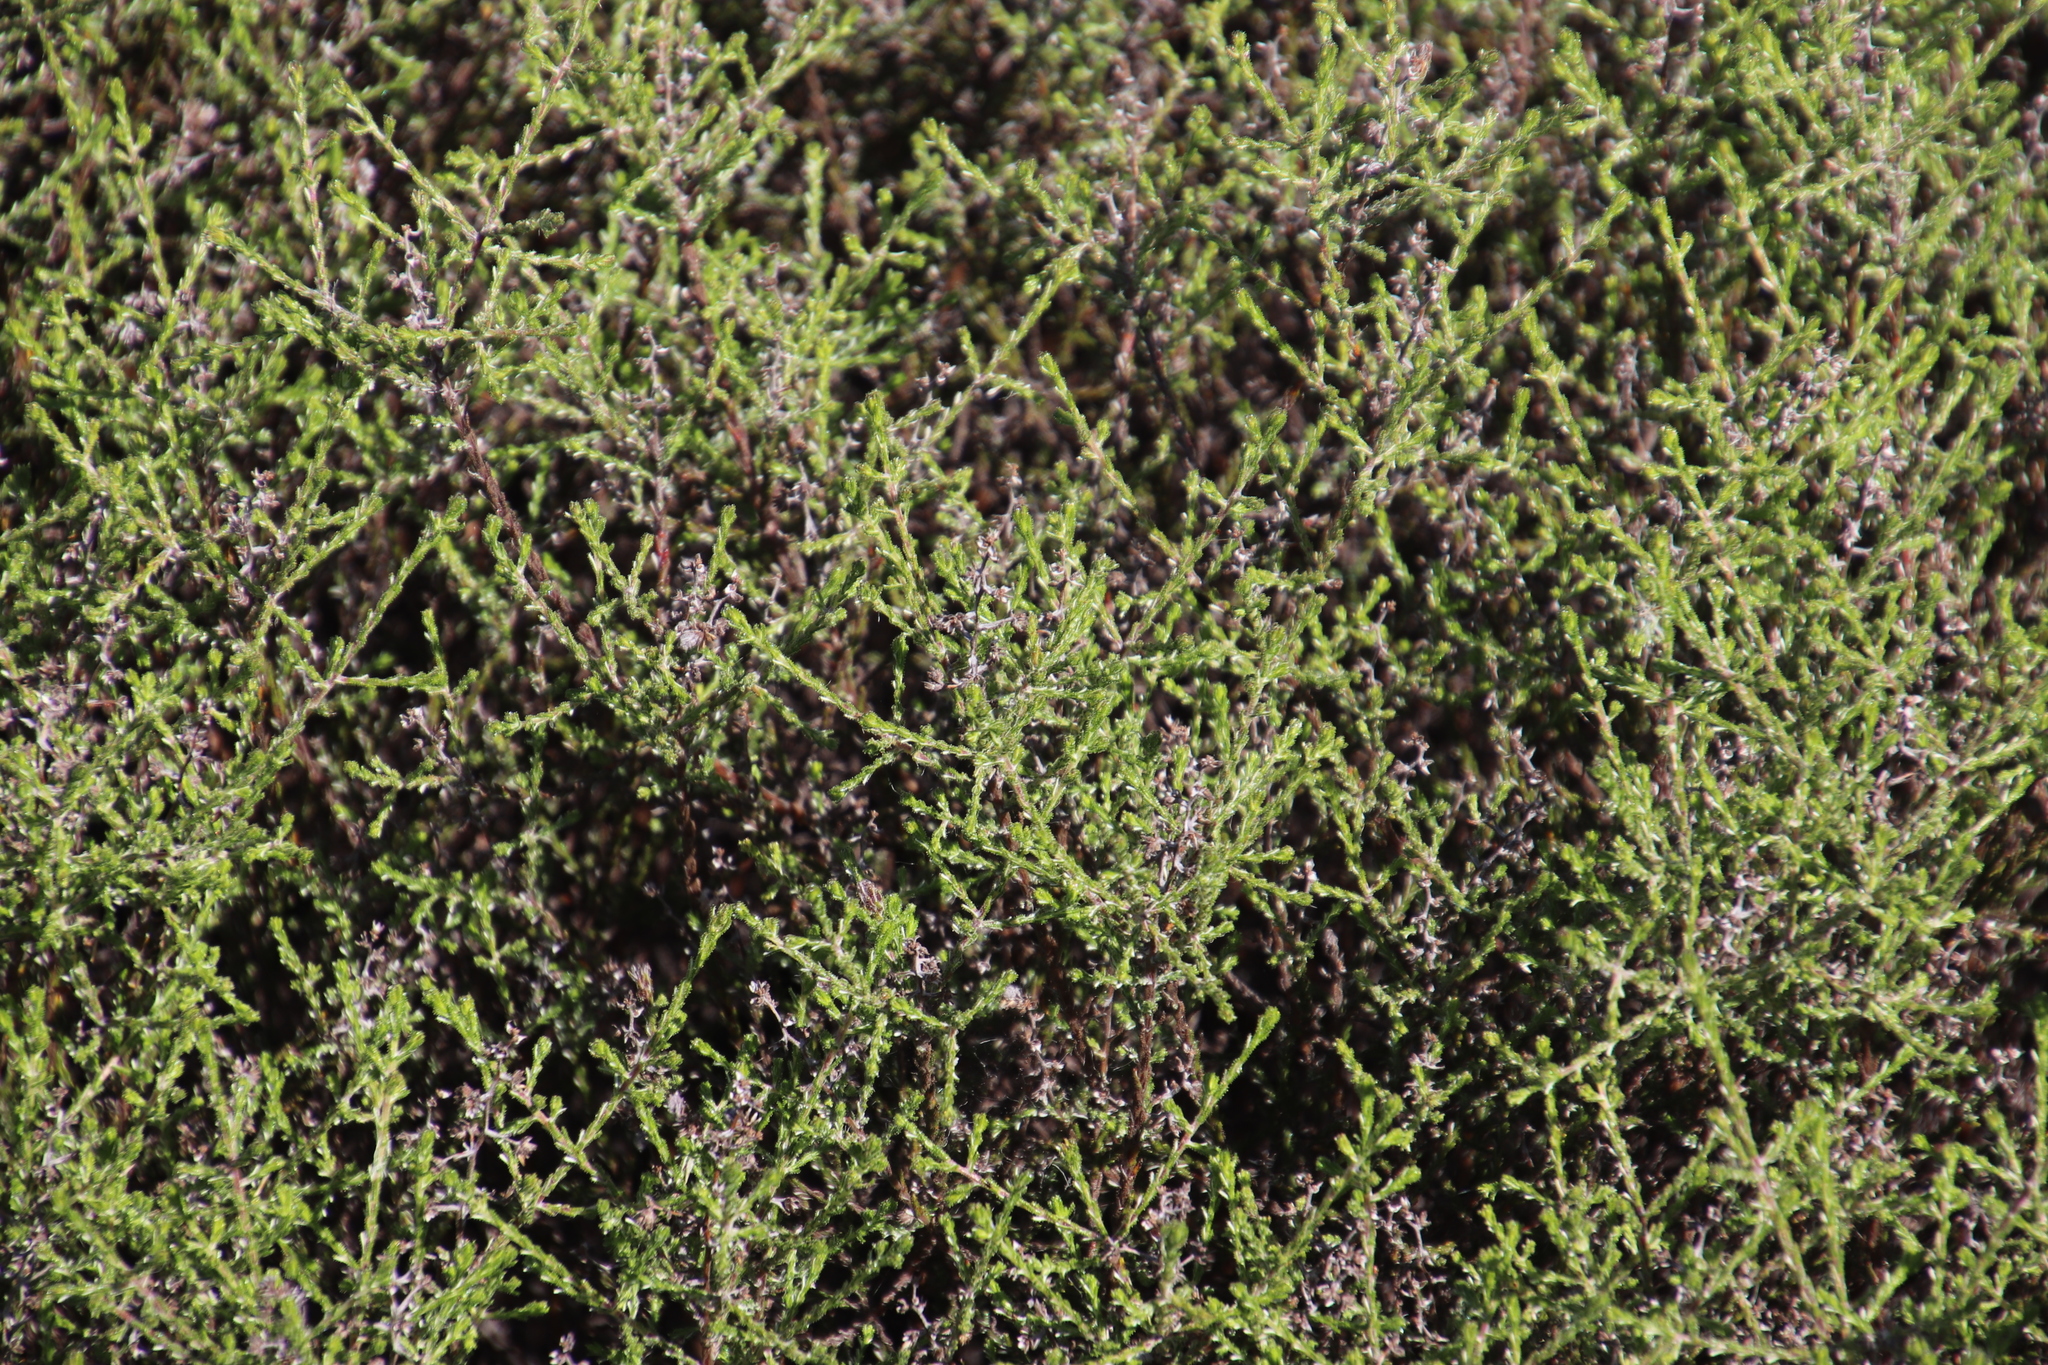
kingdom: Plantae
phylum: Tracheophyta
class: Magnoliopsida
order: Asterales
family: Asteraceae
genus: Myrovernix
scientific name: Myrovernix scaber
